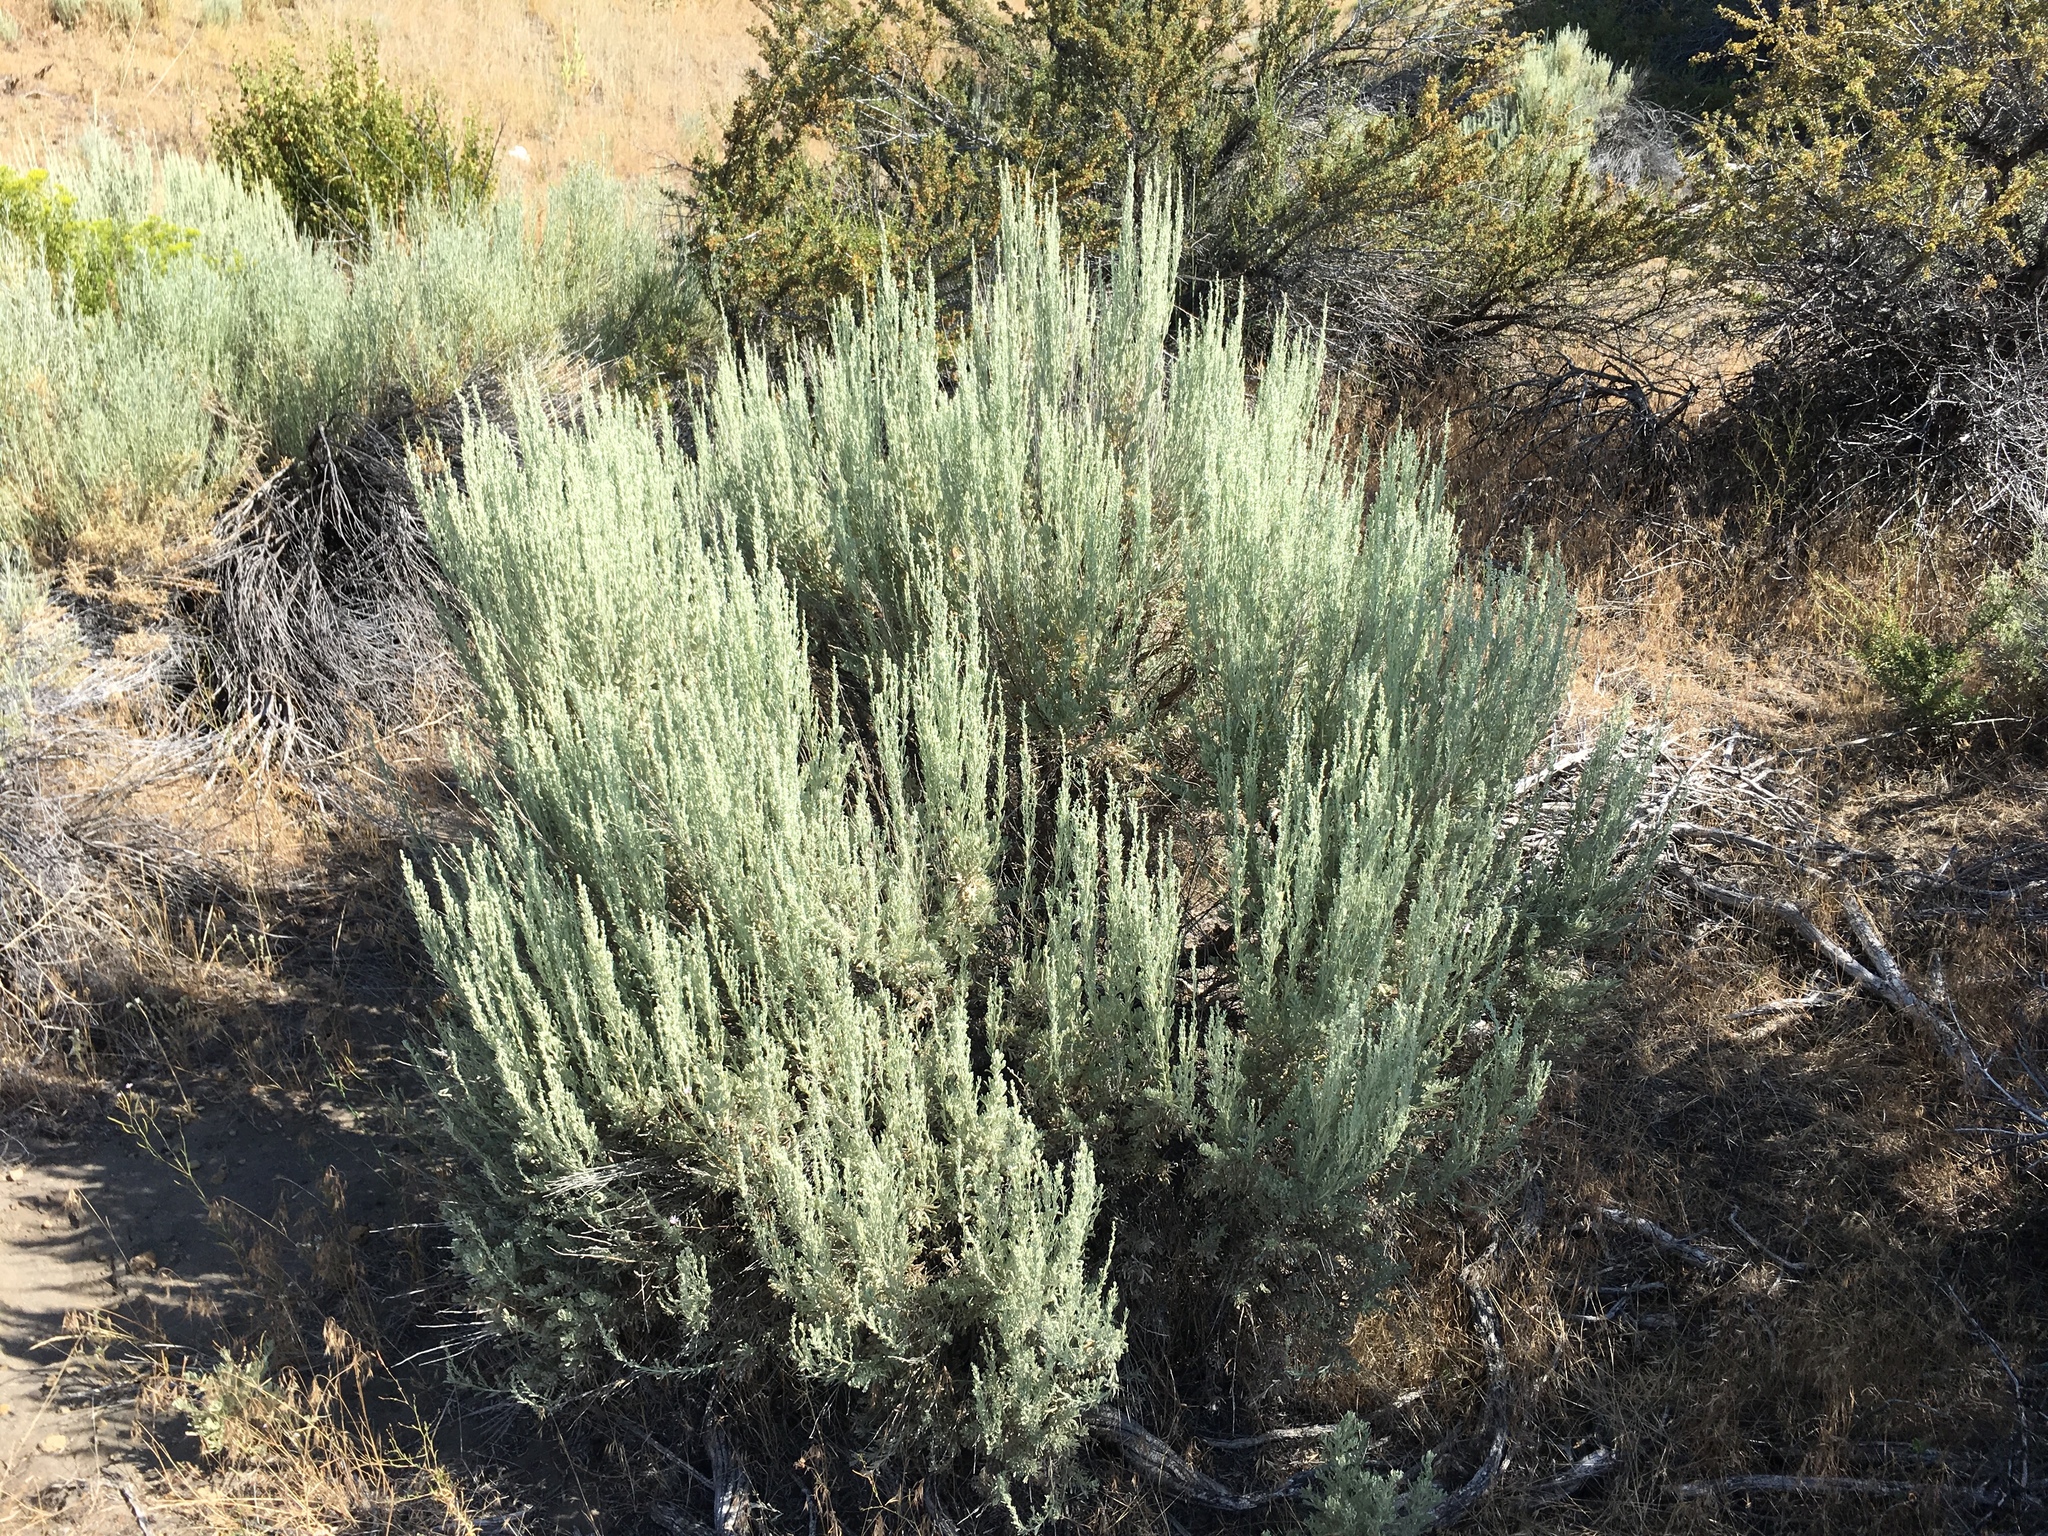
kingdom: Plantae
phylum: Tracheophyta
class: Magnoliopsida
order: Asterales
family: Asteraceae
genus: Artemisia
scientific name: Artemisia tridentata
